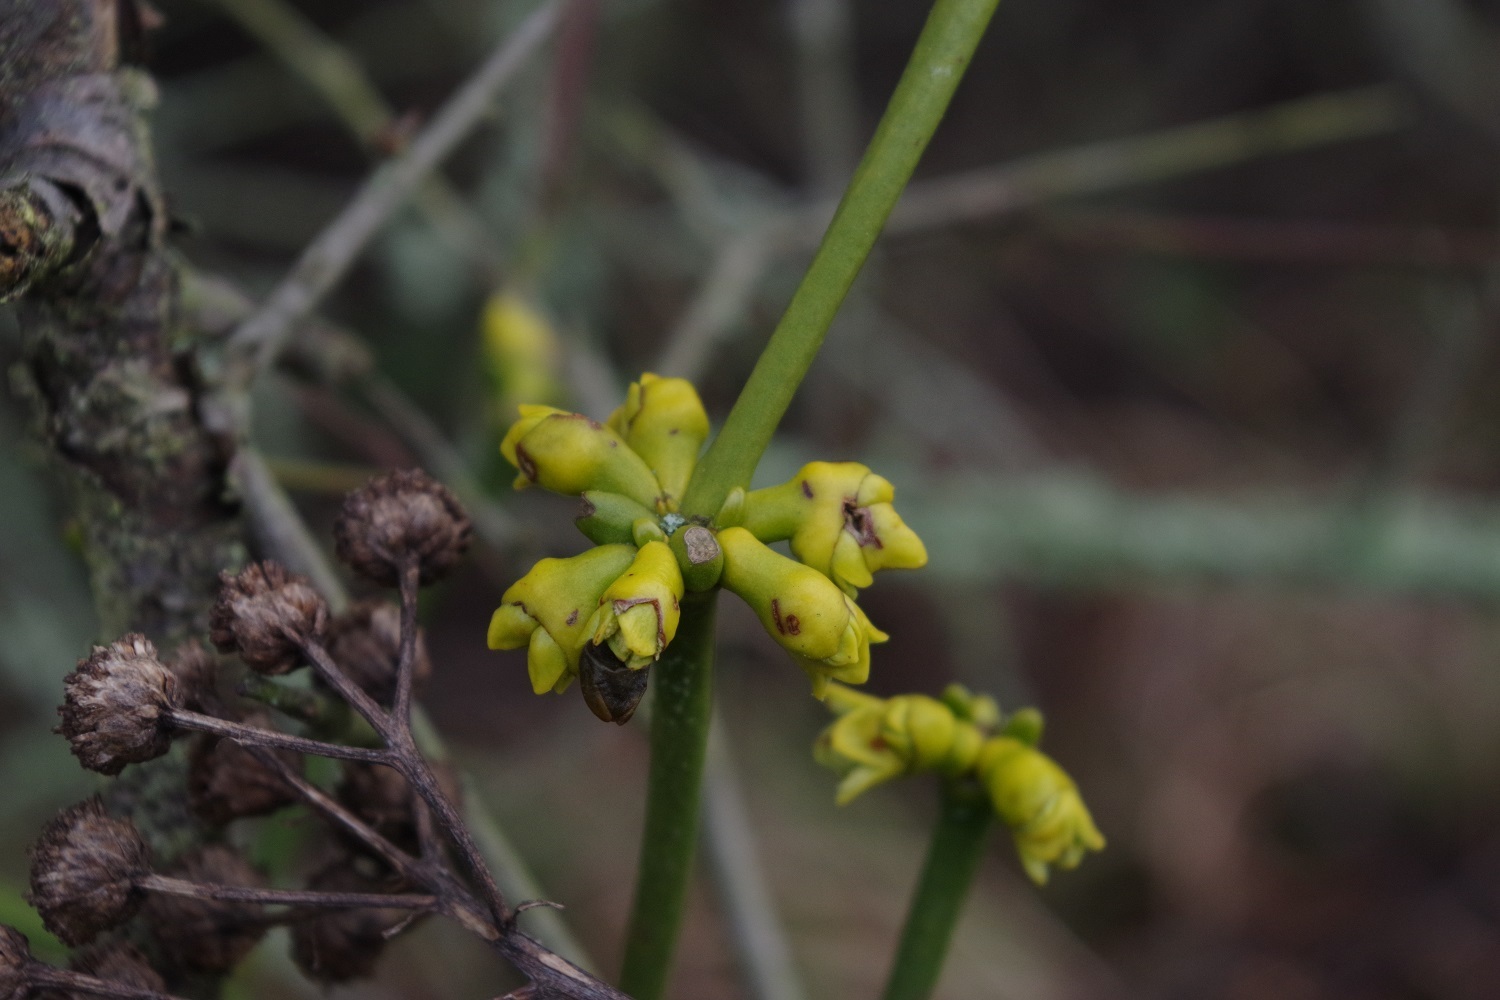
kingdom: Plantae
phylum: Tracheophyta
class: Magnoliopsida
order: Santalales
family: Viscaceae
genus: Viscum
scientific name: Viscum album
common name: Mistletoe
